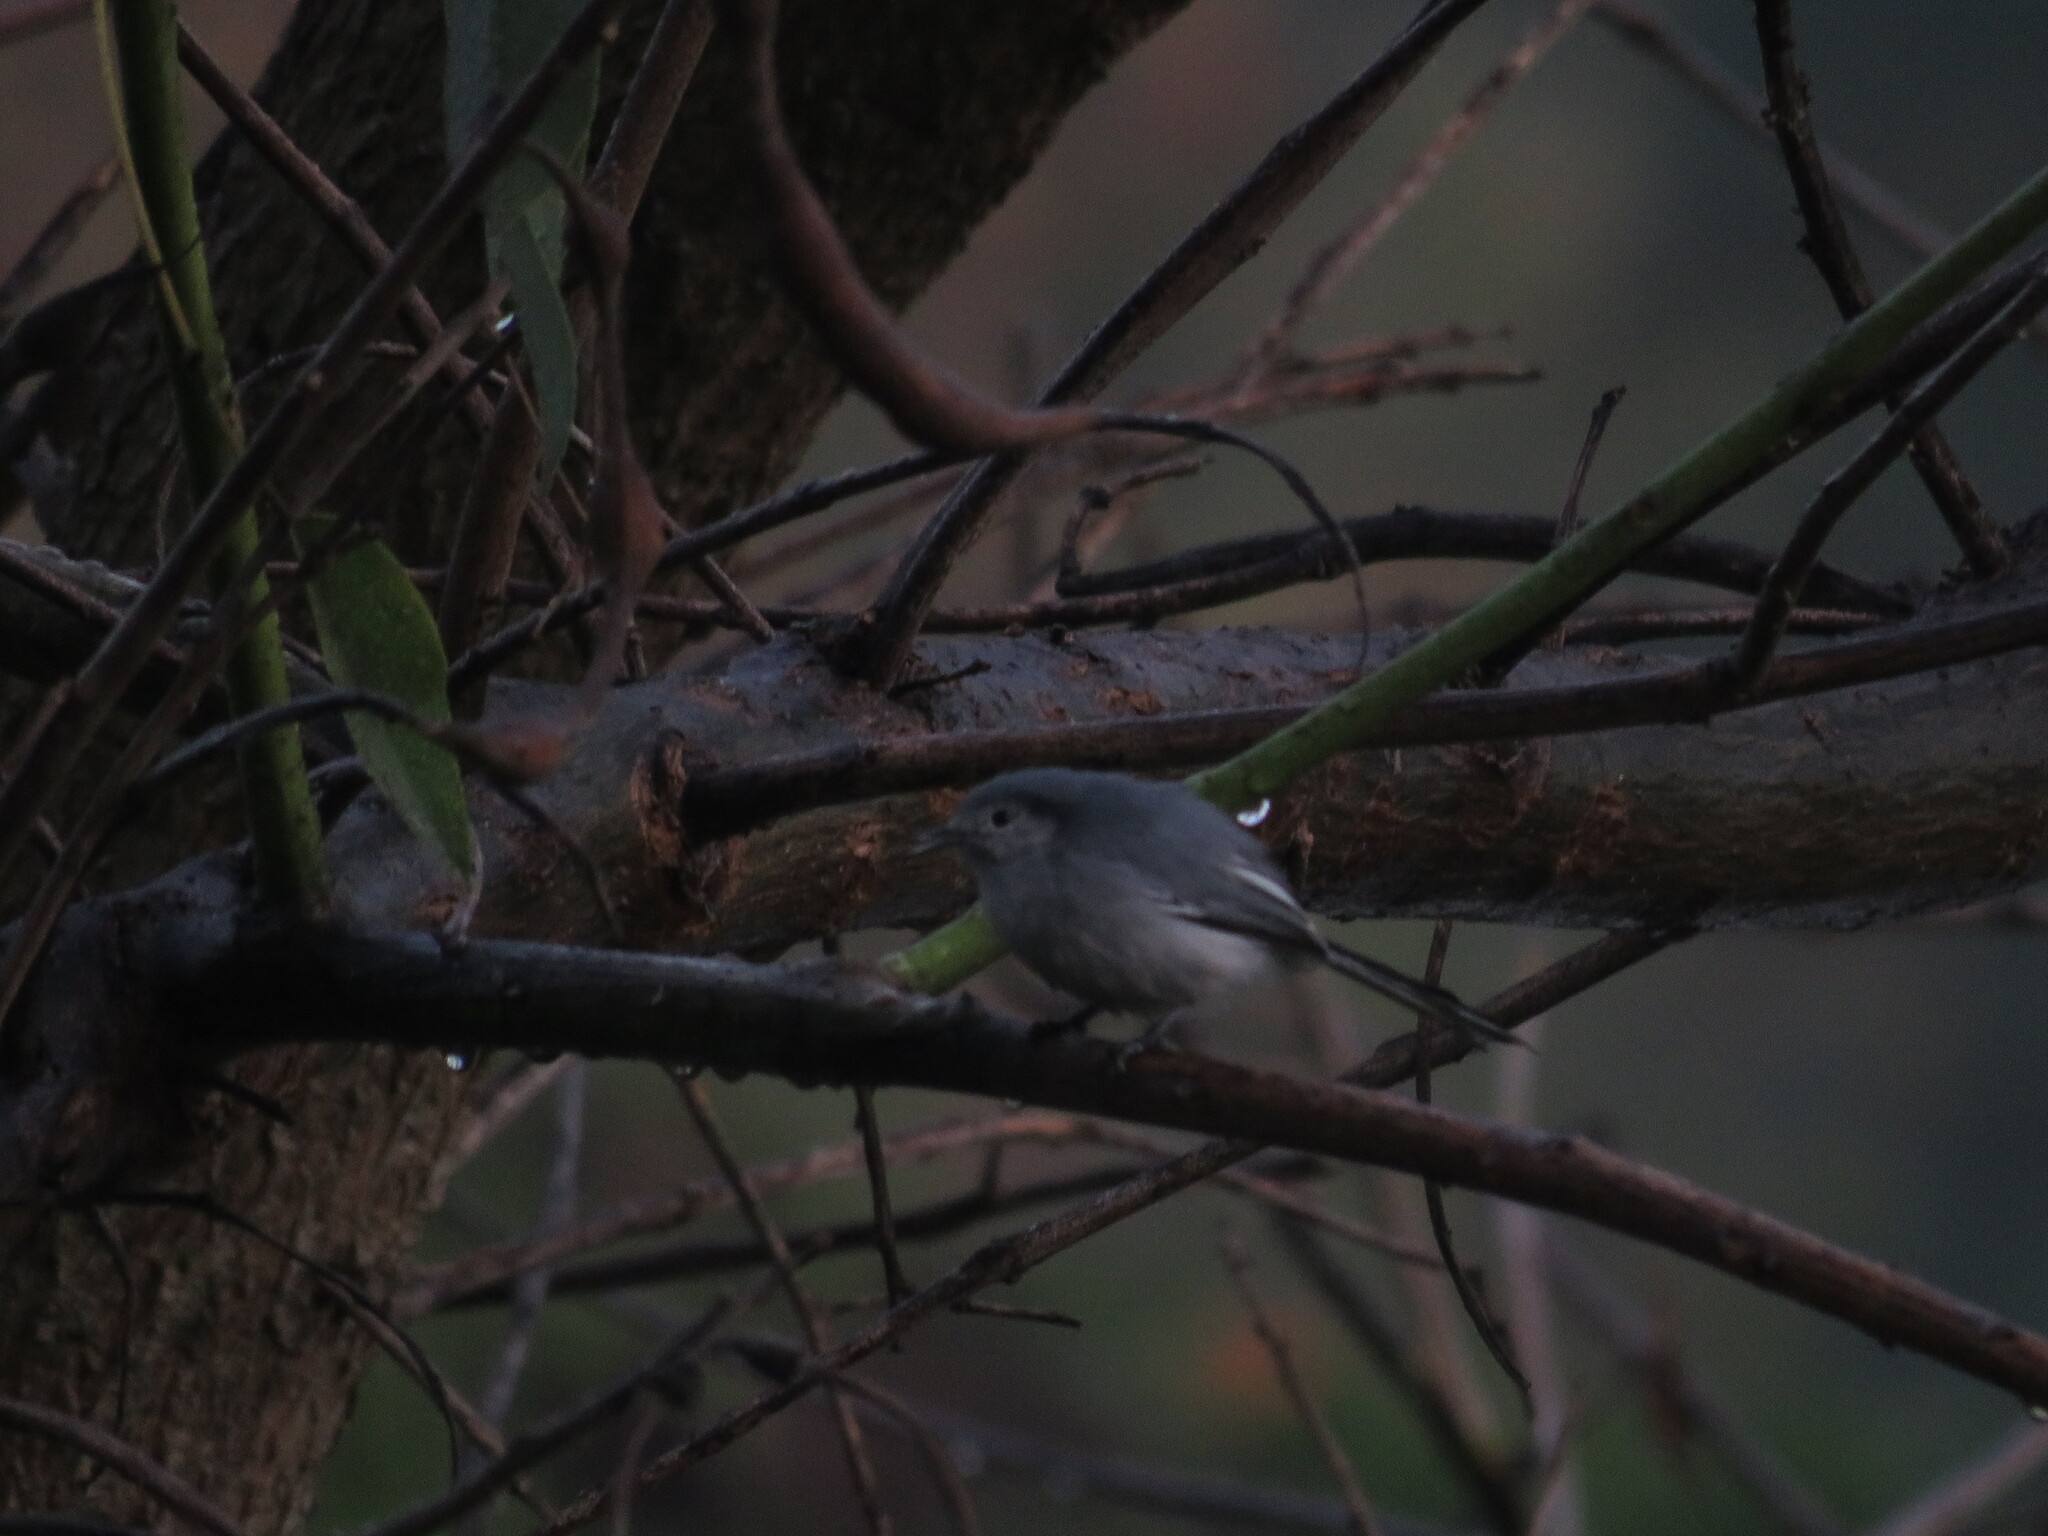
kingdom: Animalia
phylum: Chordata
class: Aves
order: Passeriformes
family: Polioptilidae
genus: Polioptila
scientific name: Polioptila dumicola
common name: Masked gnatcatcher
